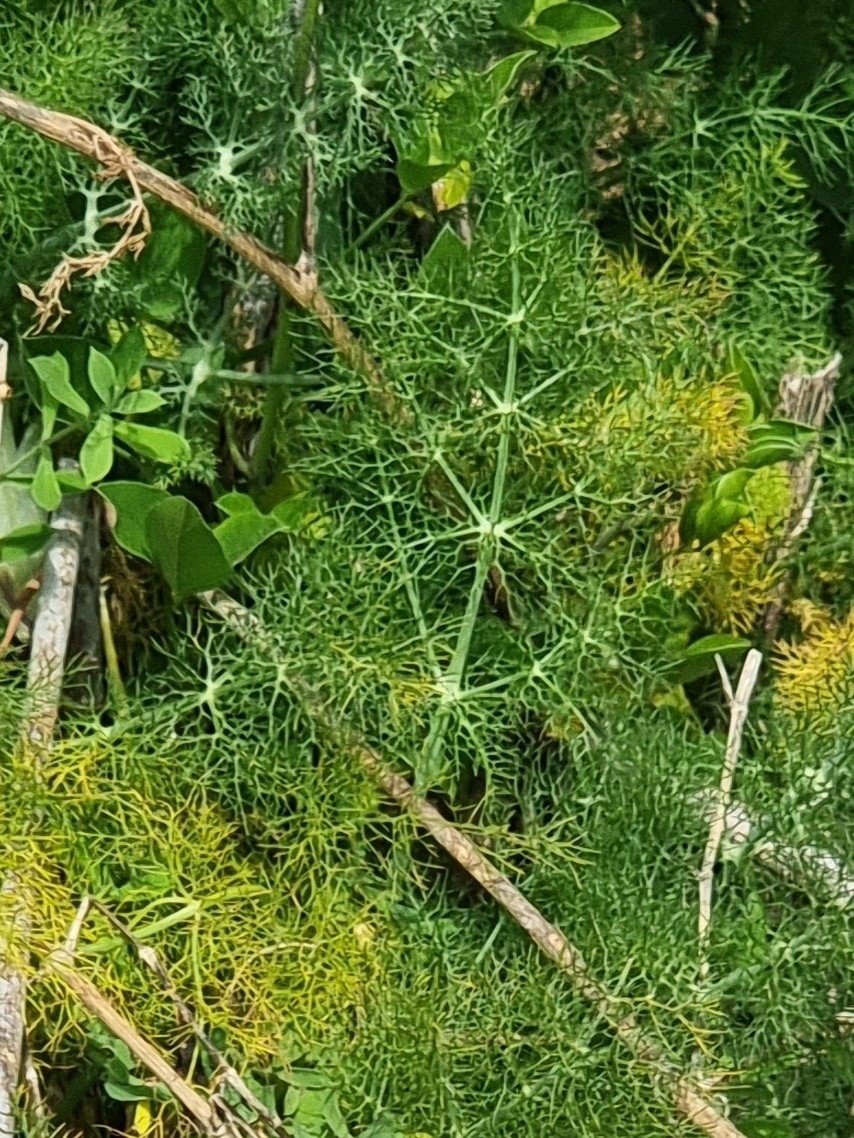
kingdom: Plantae
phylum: Tracheophyta
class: Magnoliopsida
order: Apiales
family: Apiaceae
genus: Foeniculum
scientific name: Foeniculum vulgare
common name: Fennel
